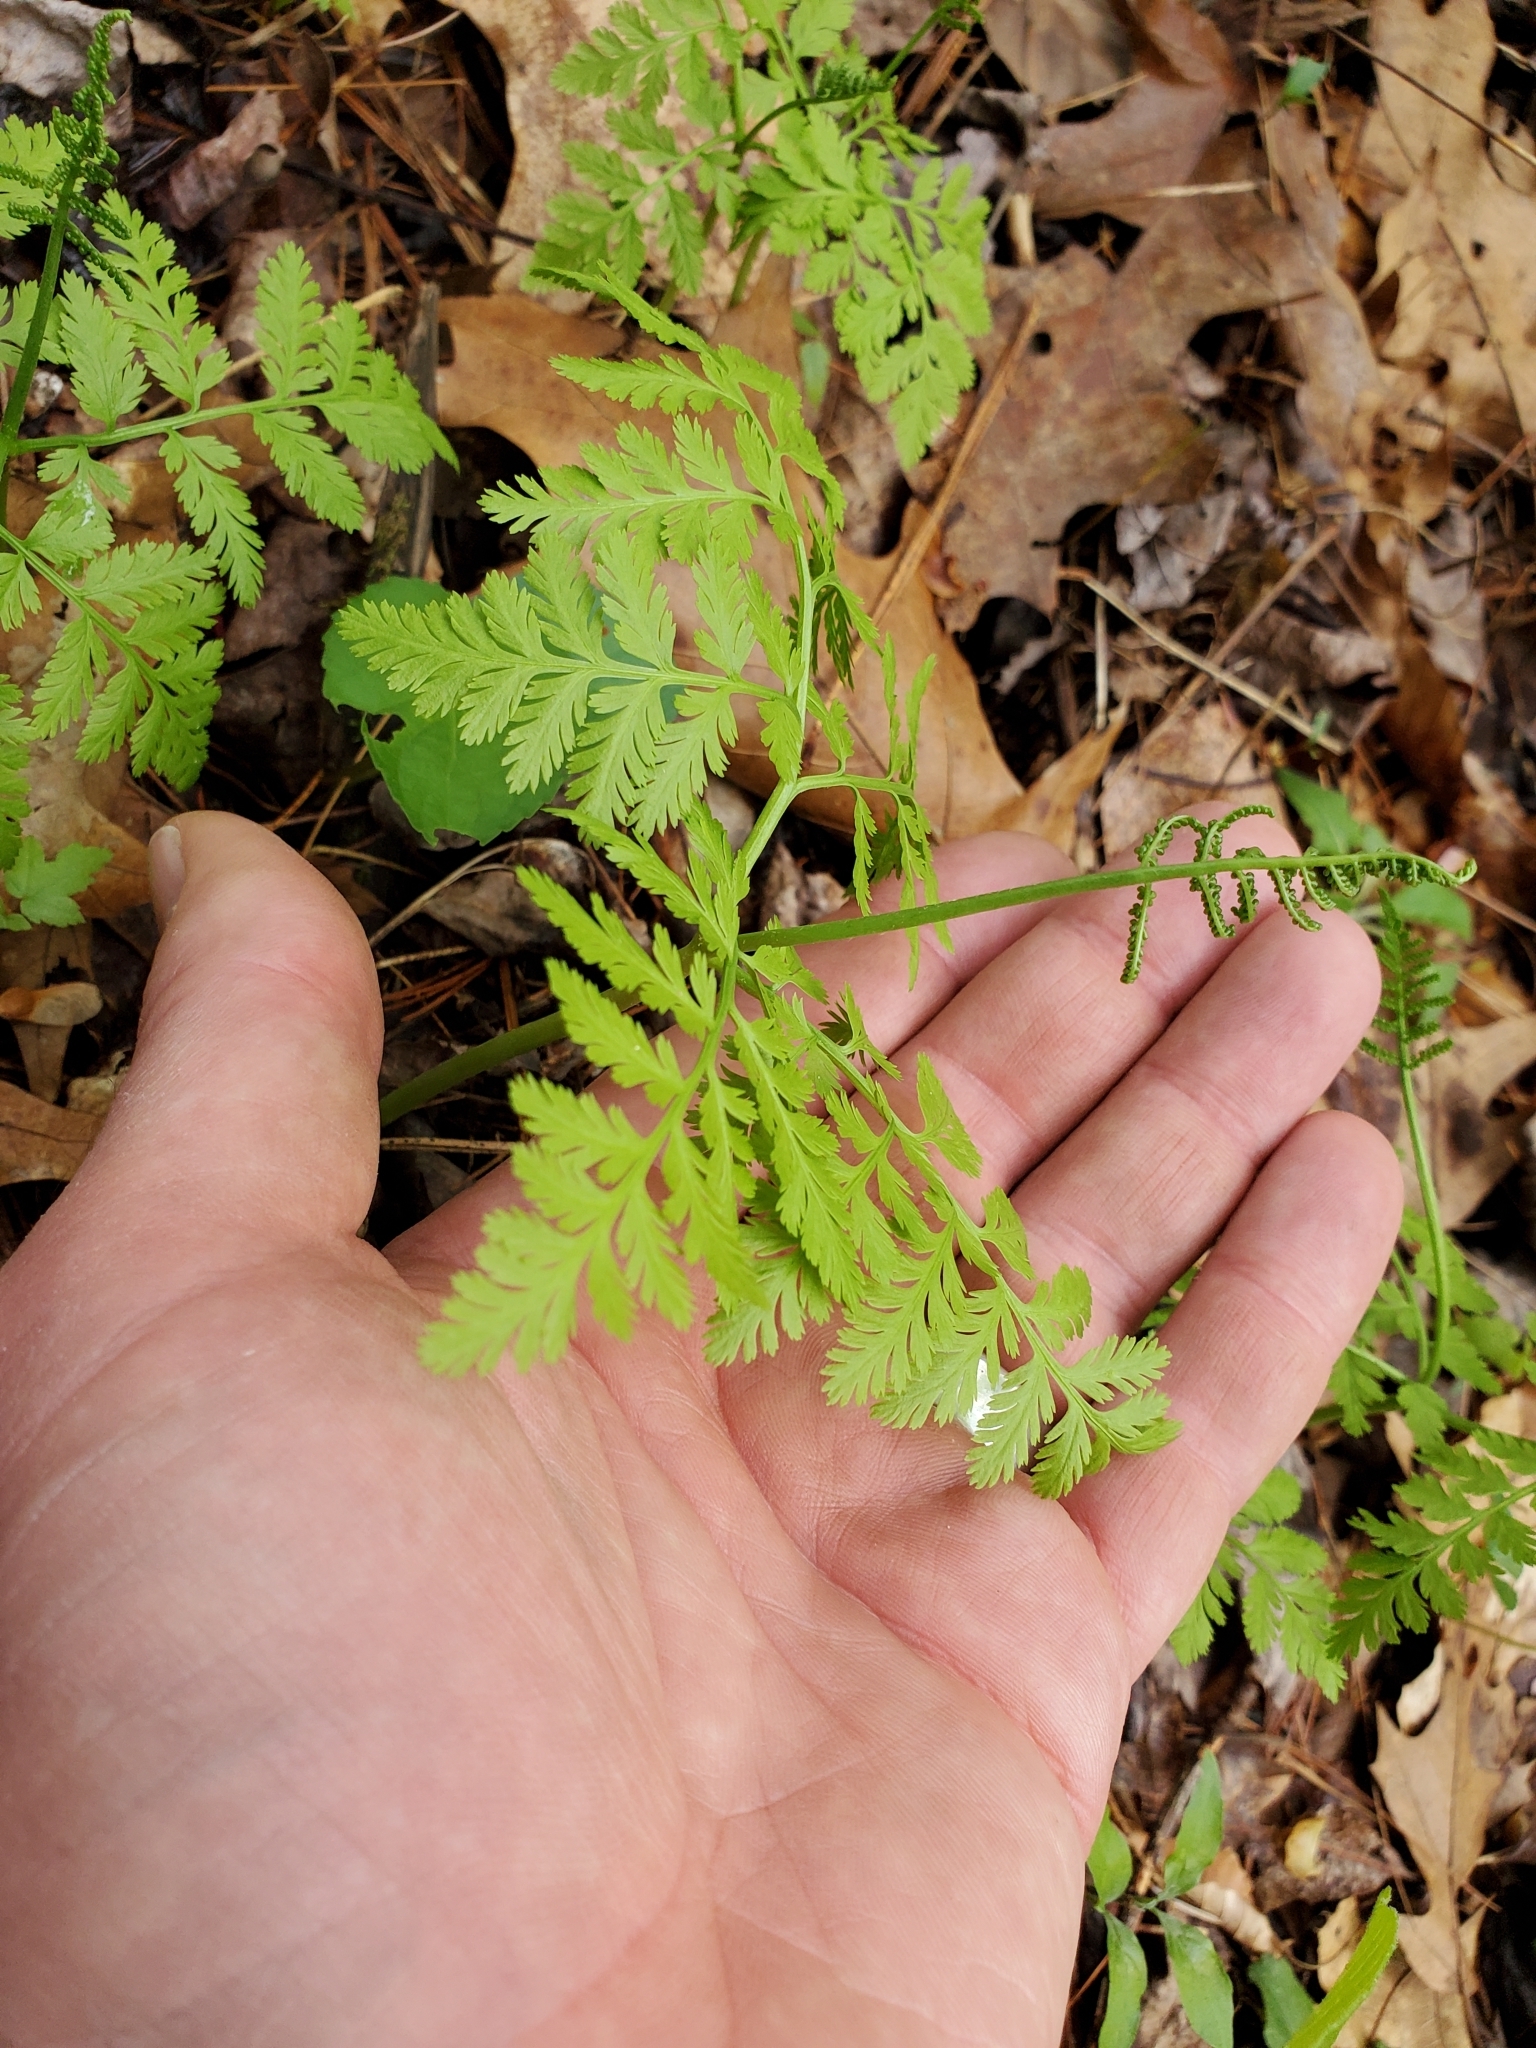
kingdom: Plantae
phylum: Tracheophyta
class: Polypodiopsida
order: Ophioglossales
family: Ophioglossaceae
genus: Botrypus
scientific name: Botrypus virginianus
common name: Common grapefern
